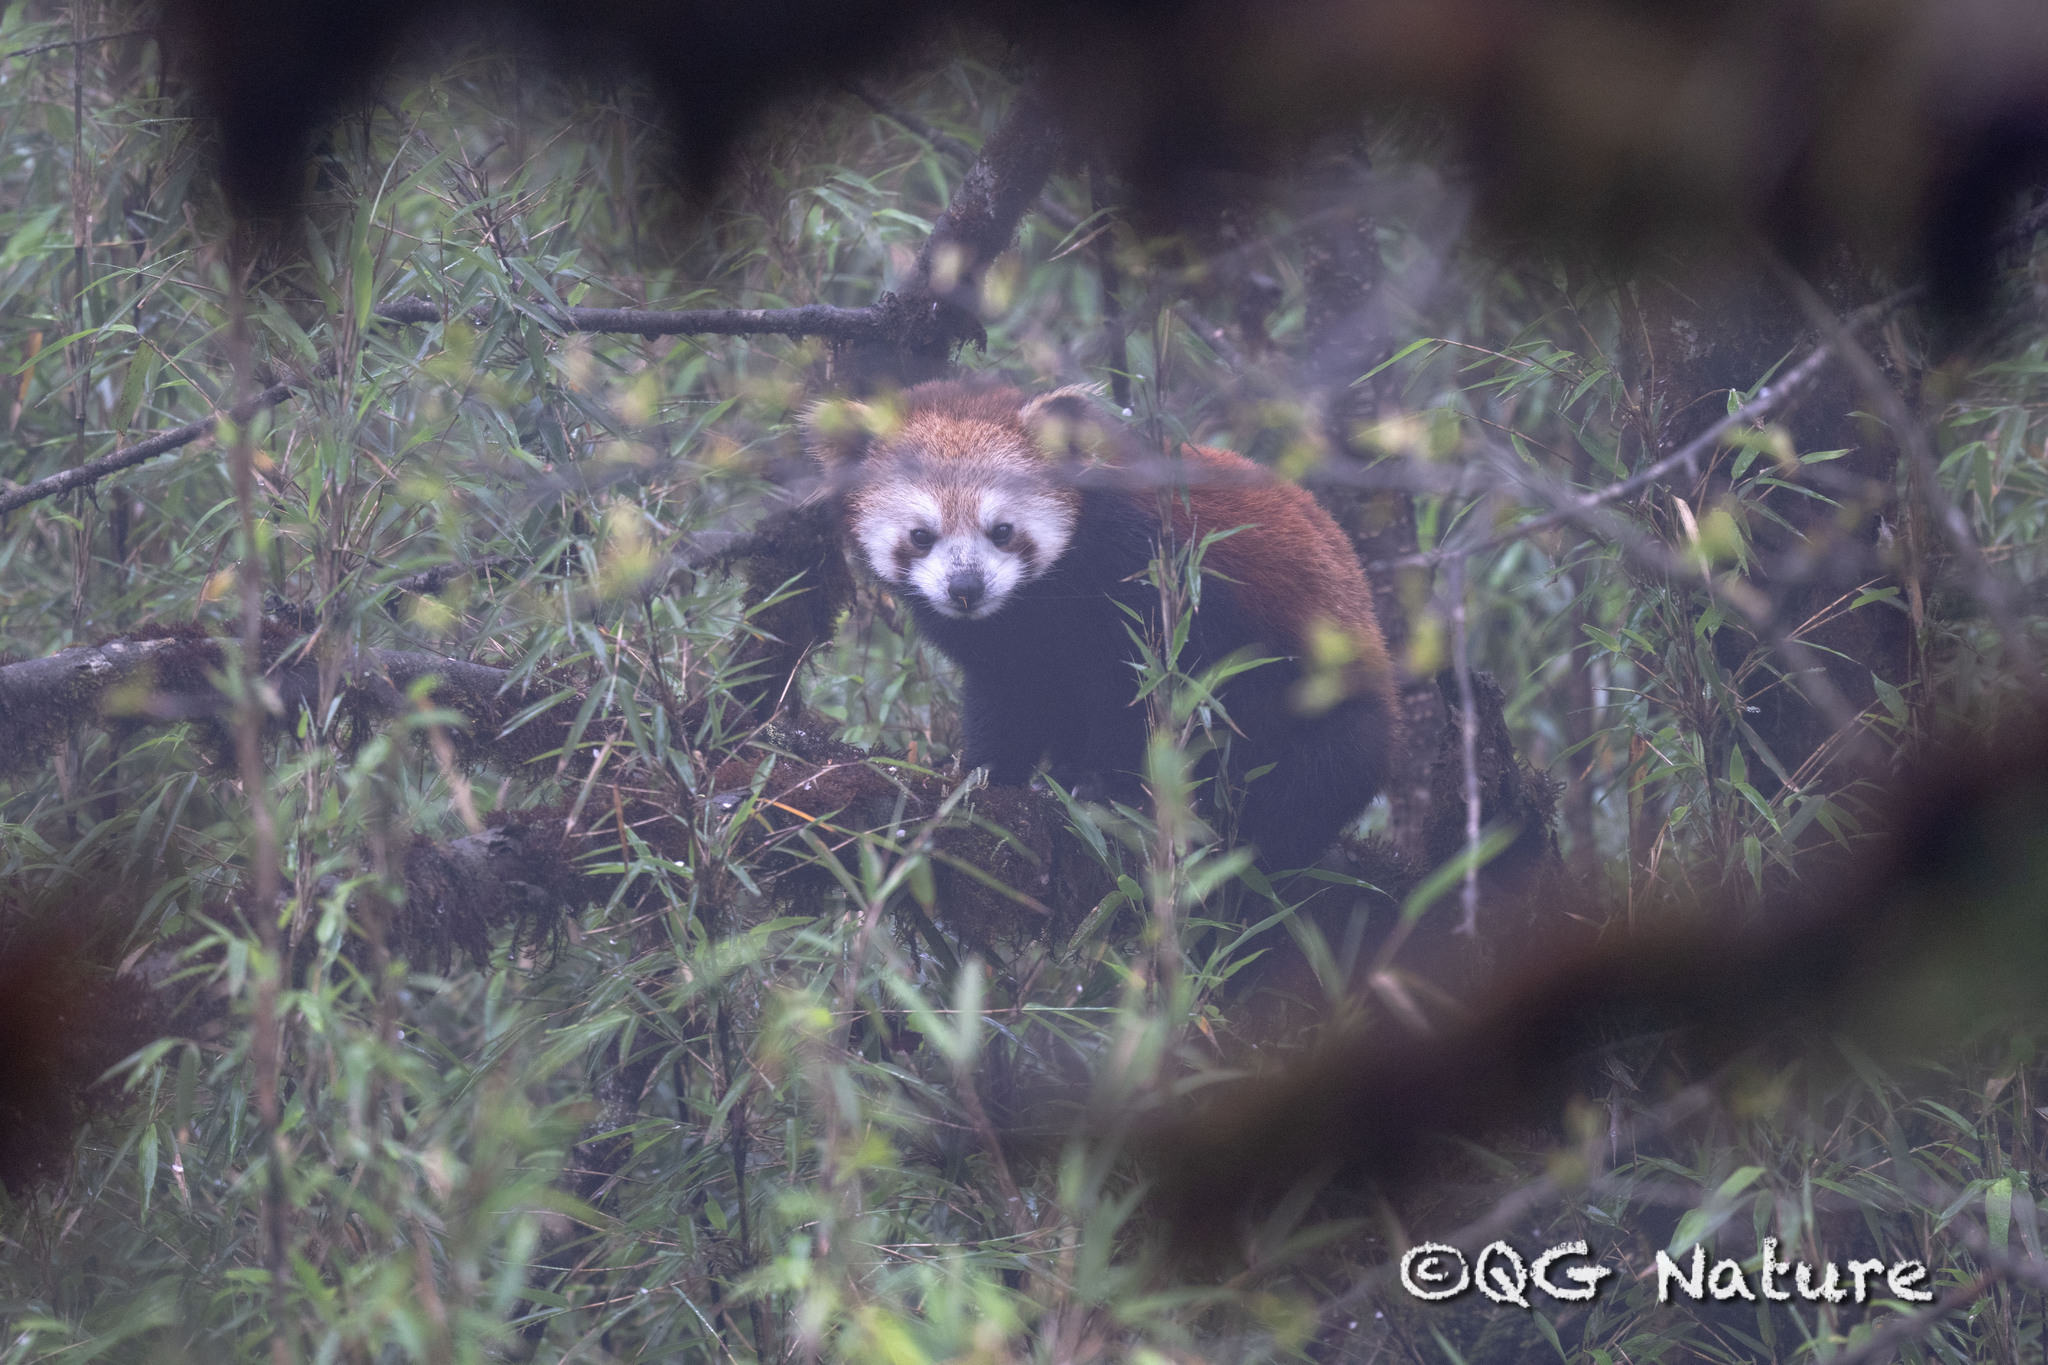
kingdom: Animalia
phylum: Chordata
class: Mammalia
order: Carnivora
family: Ailuridae
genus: Ailurus
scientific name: Ailurus styani
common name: Chinese red panda
